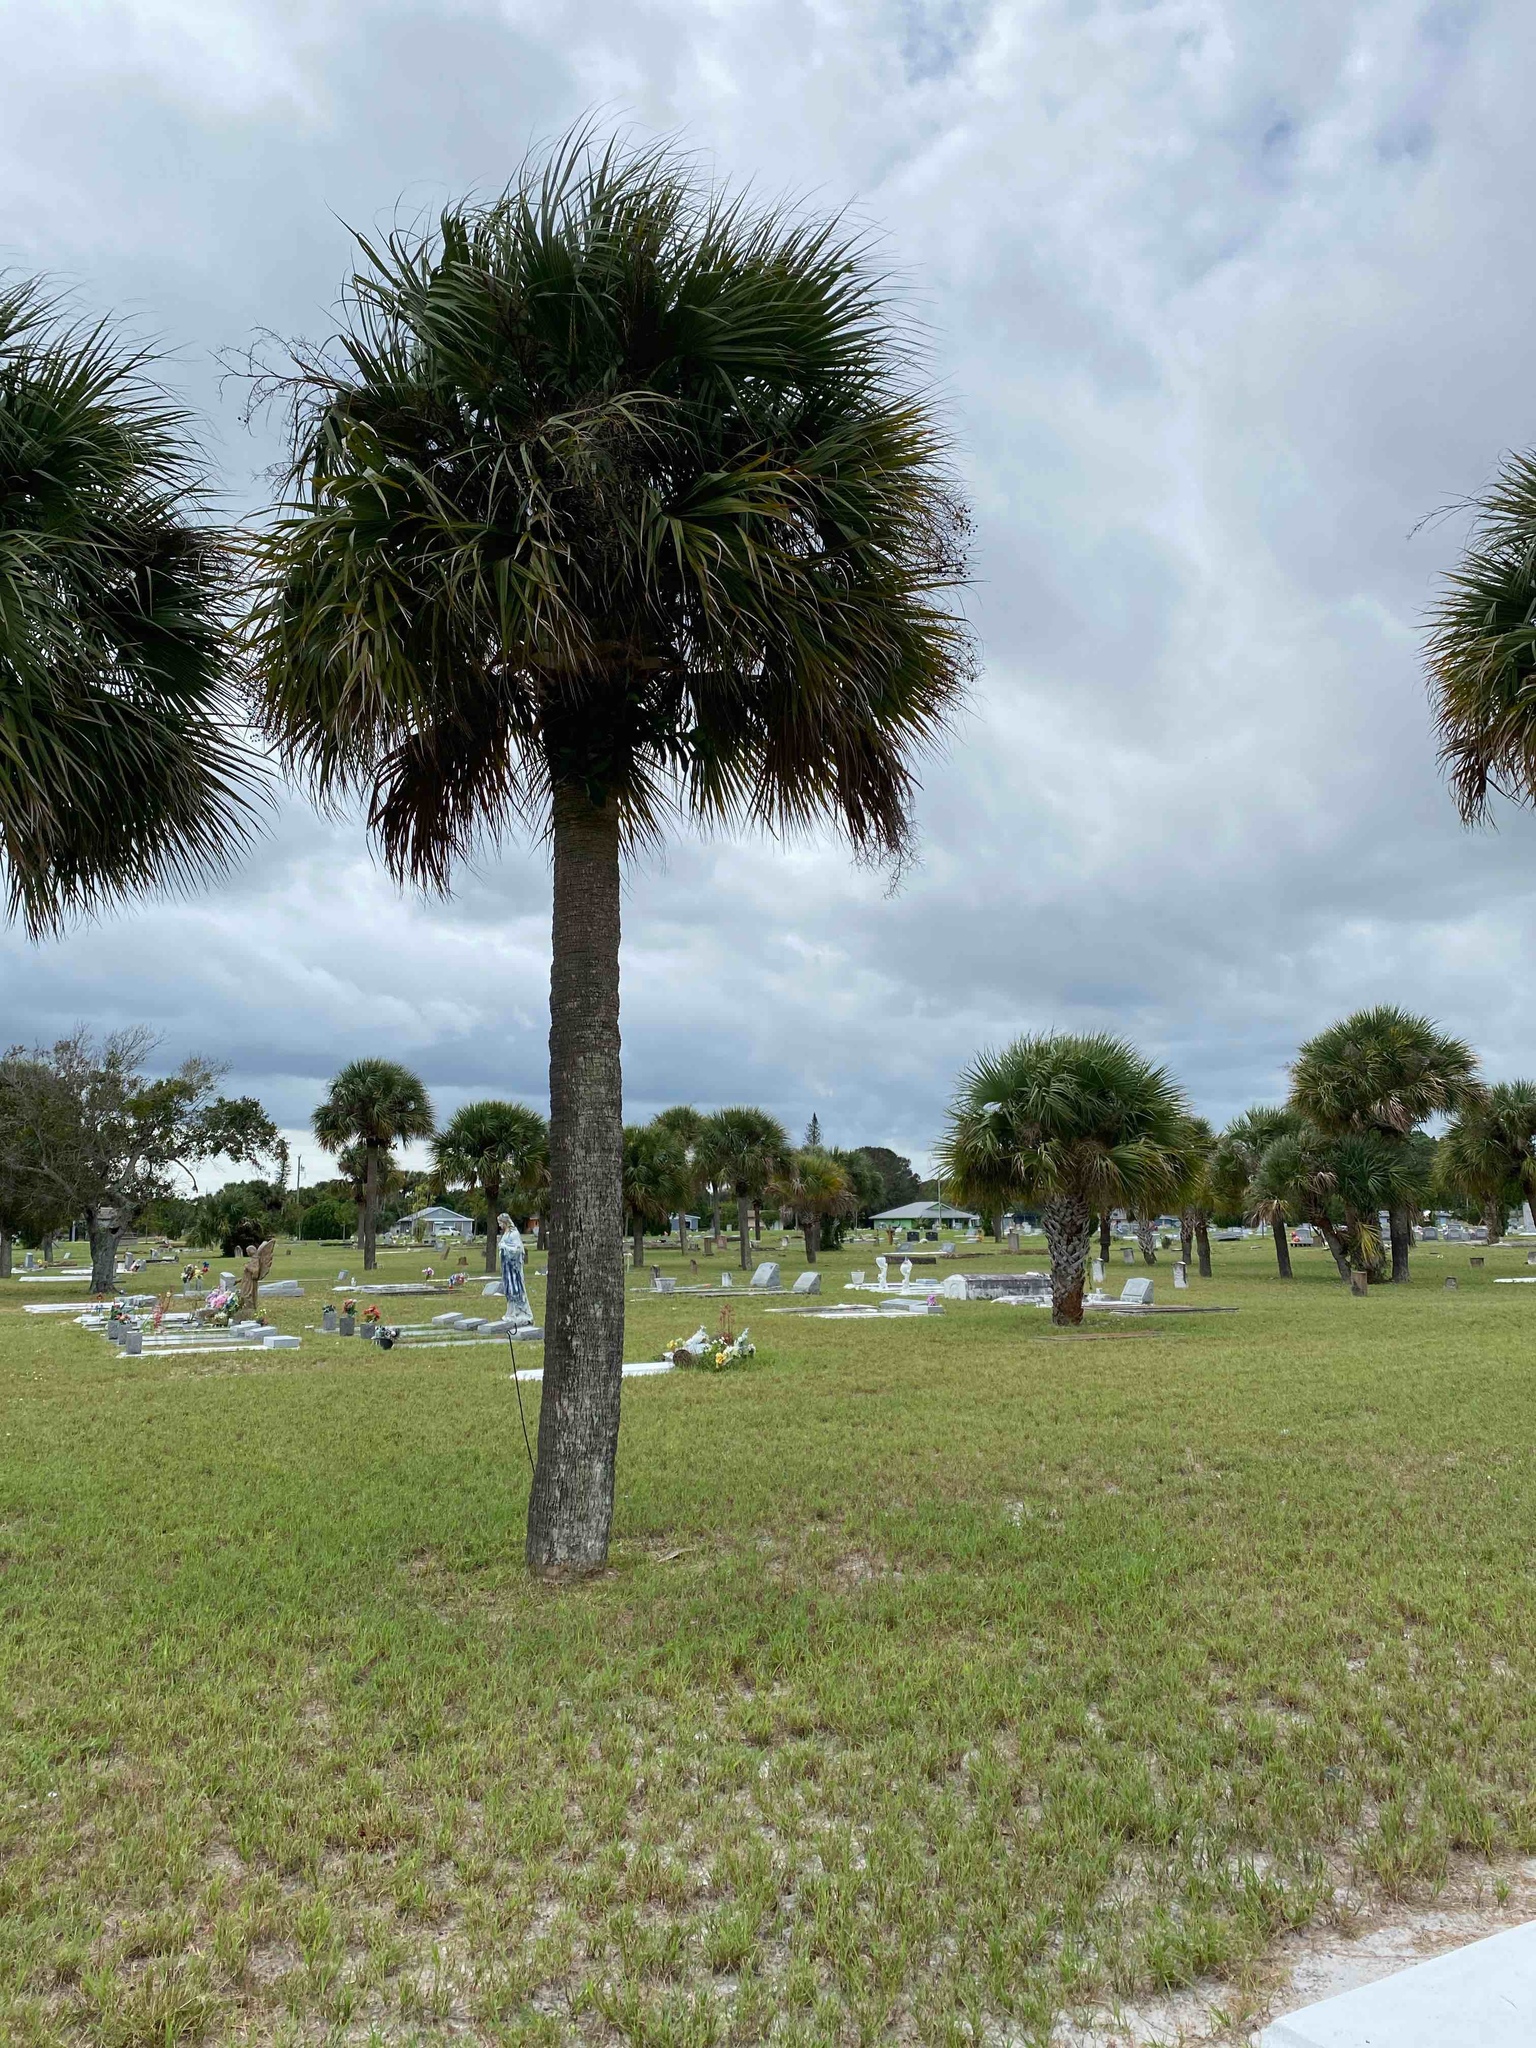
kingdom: Plantae
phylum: Tracheophyta
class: Liliopsida
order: Arecales
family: Arecaceae
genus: Sabal
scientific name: Sabal palmetto
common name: Blue palmetto
